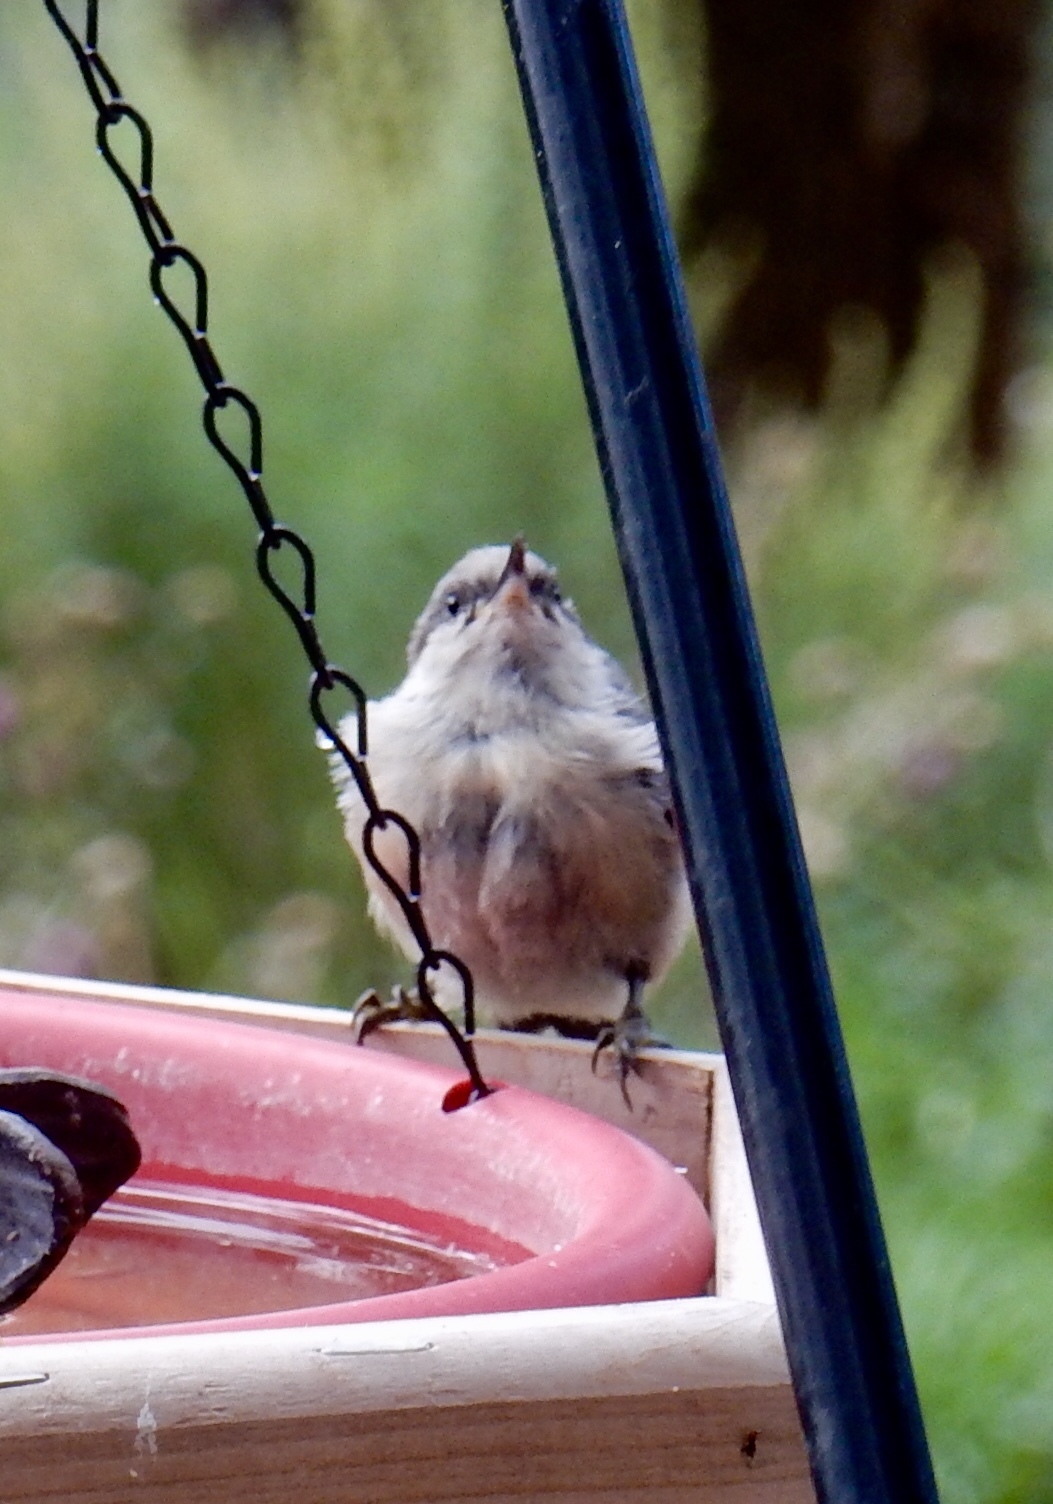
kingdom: Animalia
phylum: Chordata
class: Aves
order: Passeriformes
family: Sittidae
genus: Sitta
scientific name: Sitta pygmaea
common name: Pygmy nuthatch
